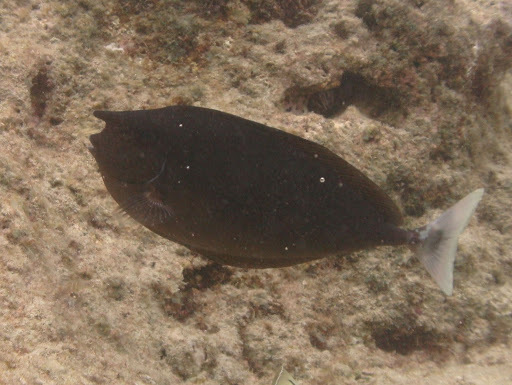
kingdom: Animalia
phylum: Chordata
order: Perciformes
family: Acanthuridae
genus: Naso
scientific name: Naso brevirostris
